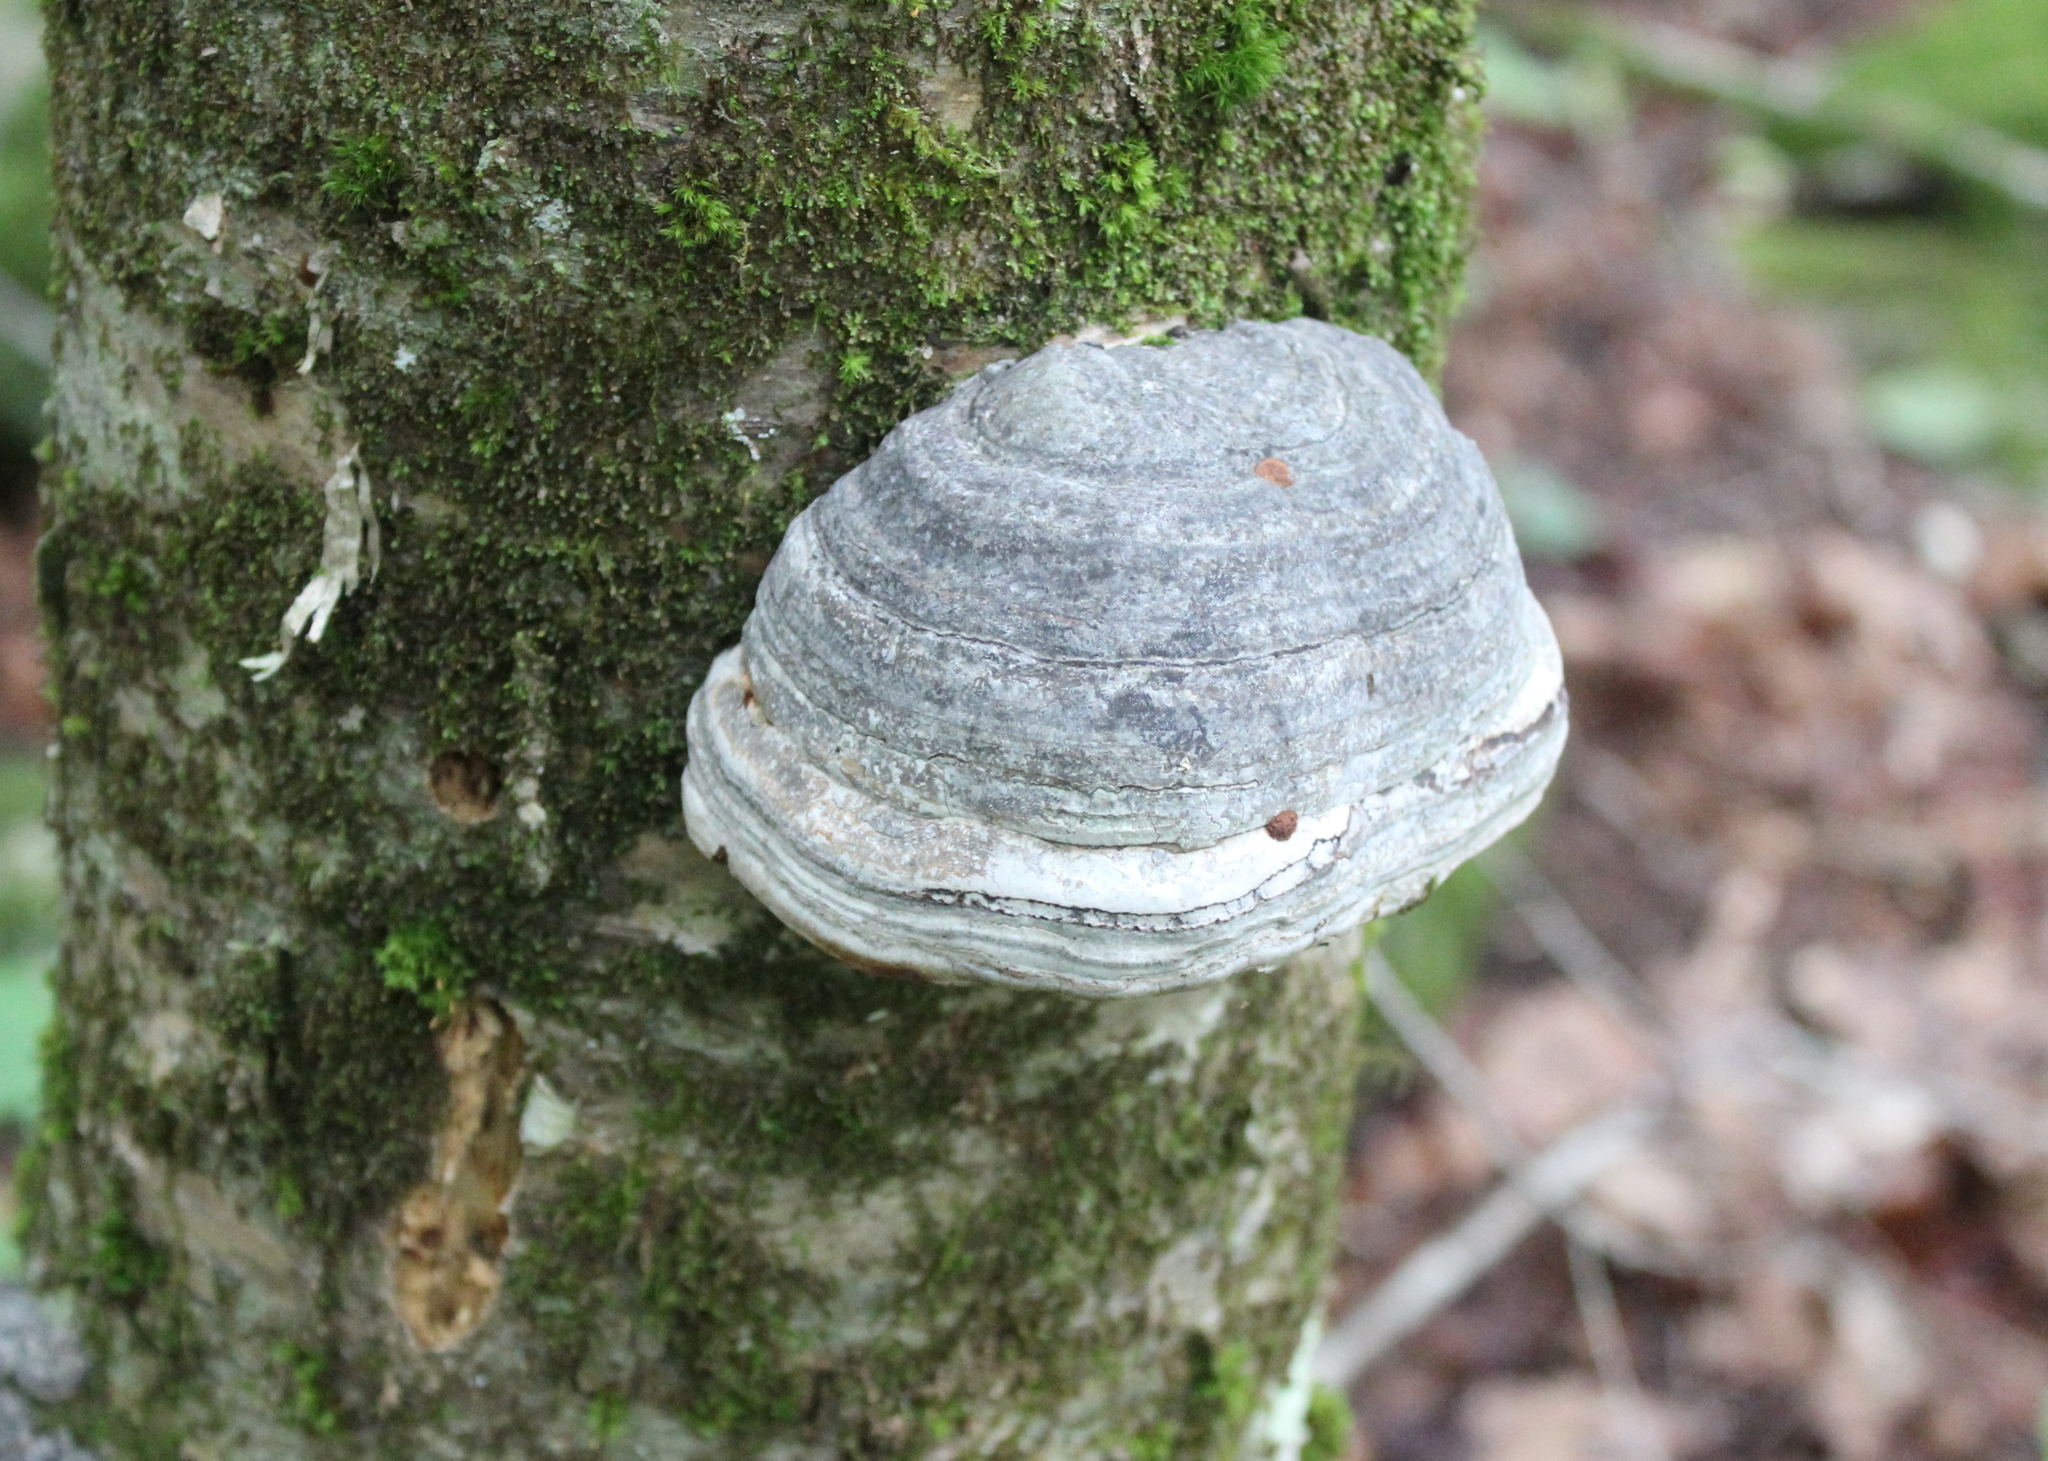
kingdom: Fungi
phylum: Basidiomycota
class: Agaricomycetes
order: Polyporales
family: Polyporaceae
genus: Fomes
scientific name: Fomes fomentarius
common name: Hoof fungus
